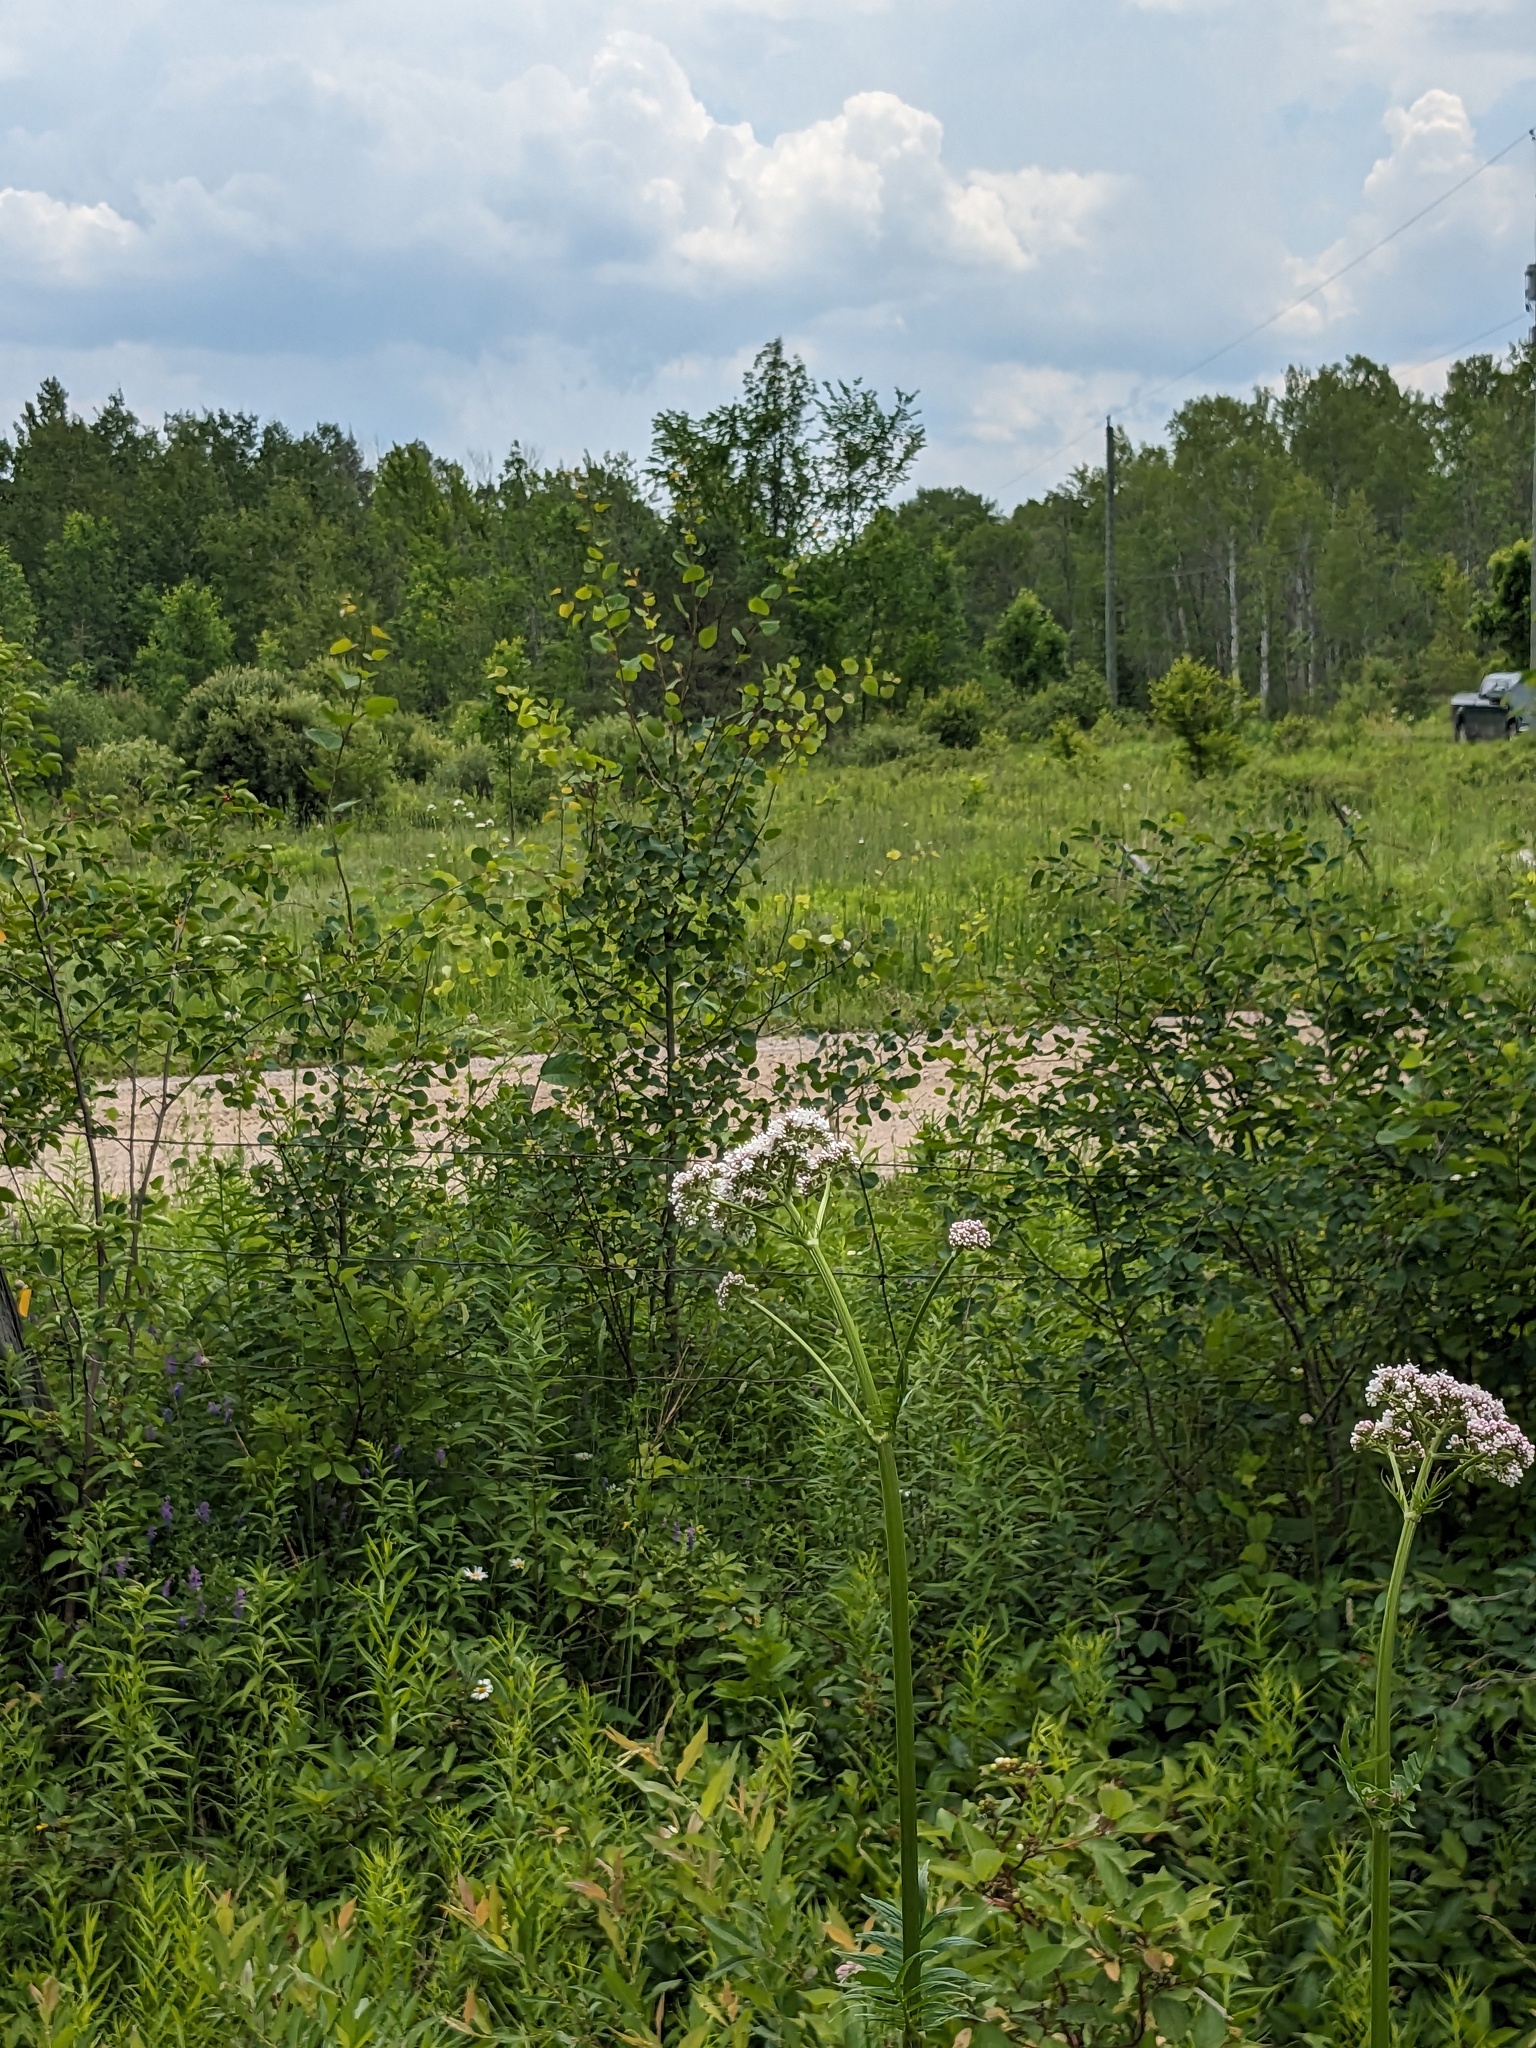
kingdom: Plantae
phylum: Tracheophyta
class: Magnoliopsida
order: Dipsacales
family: Caprifoliaceae
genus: Valeriana
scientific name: Valeriana officinalis
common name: Common valerian
